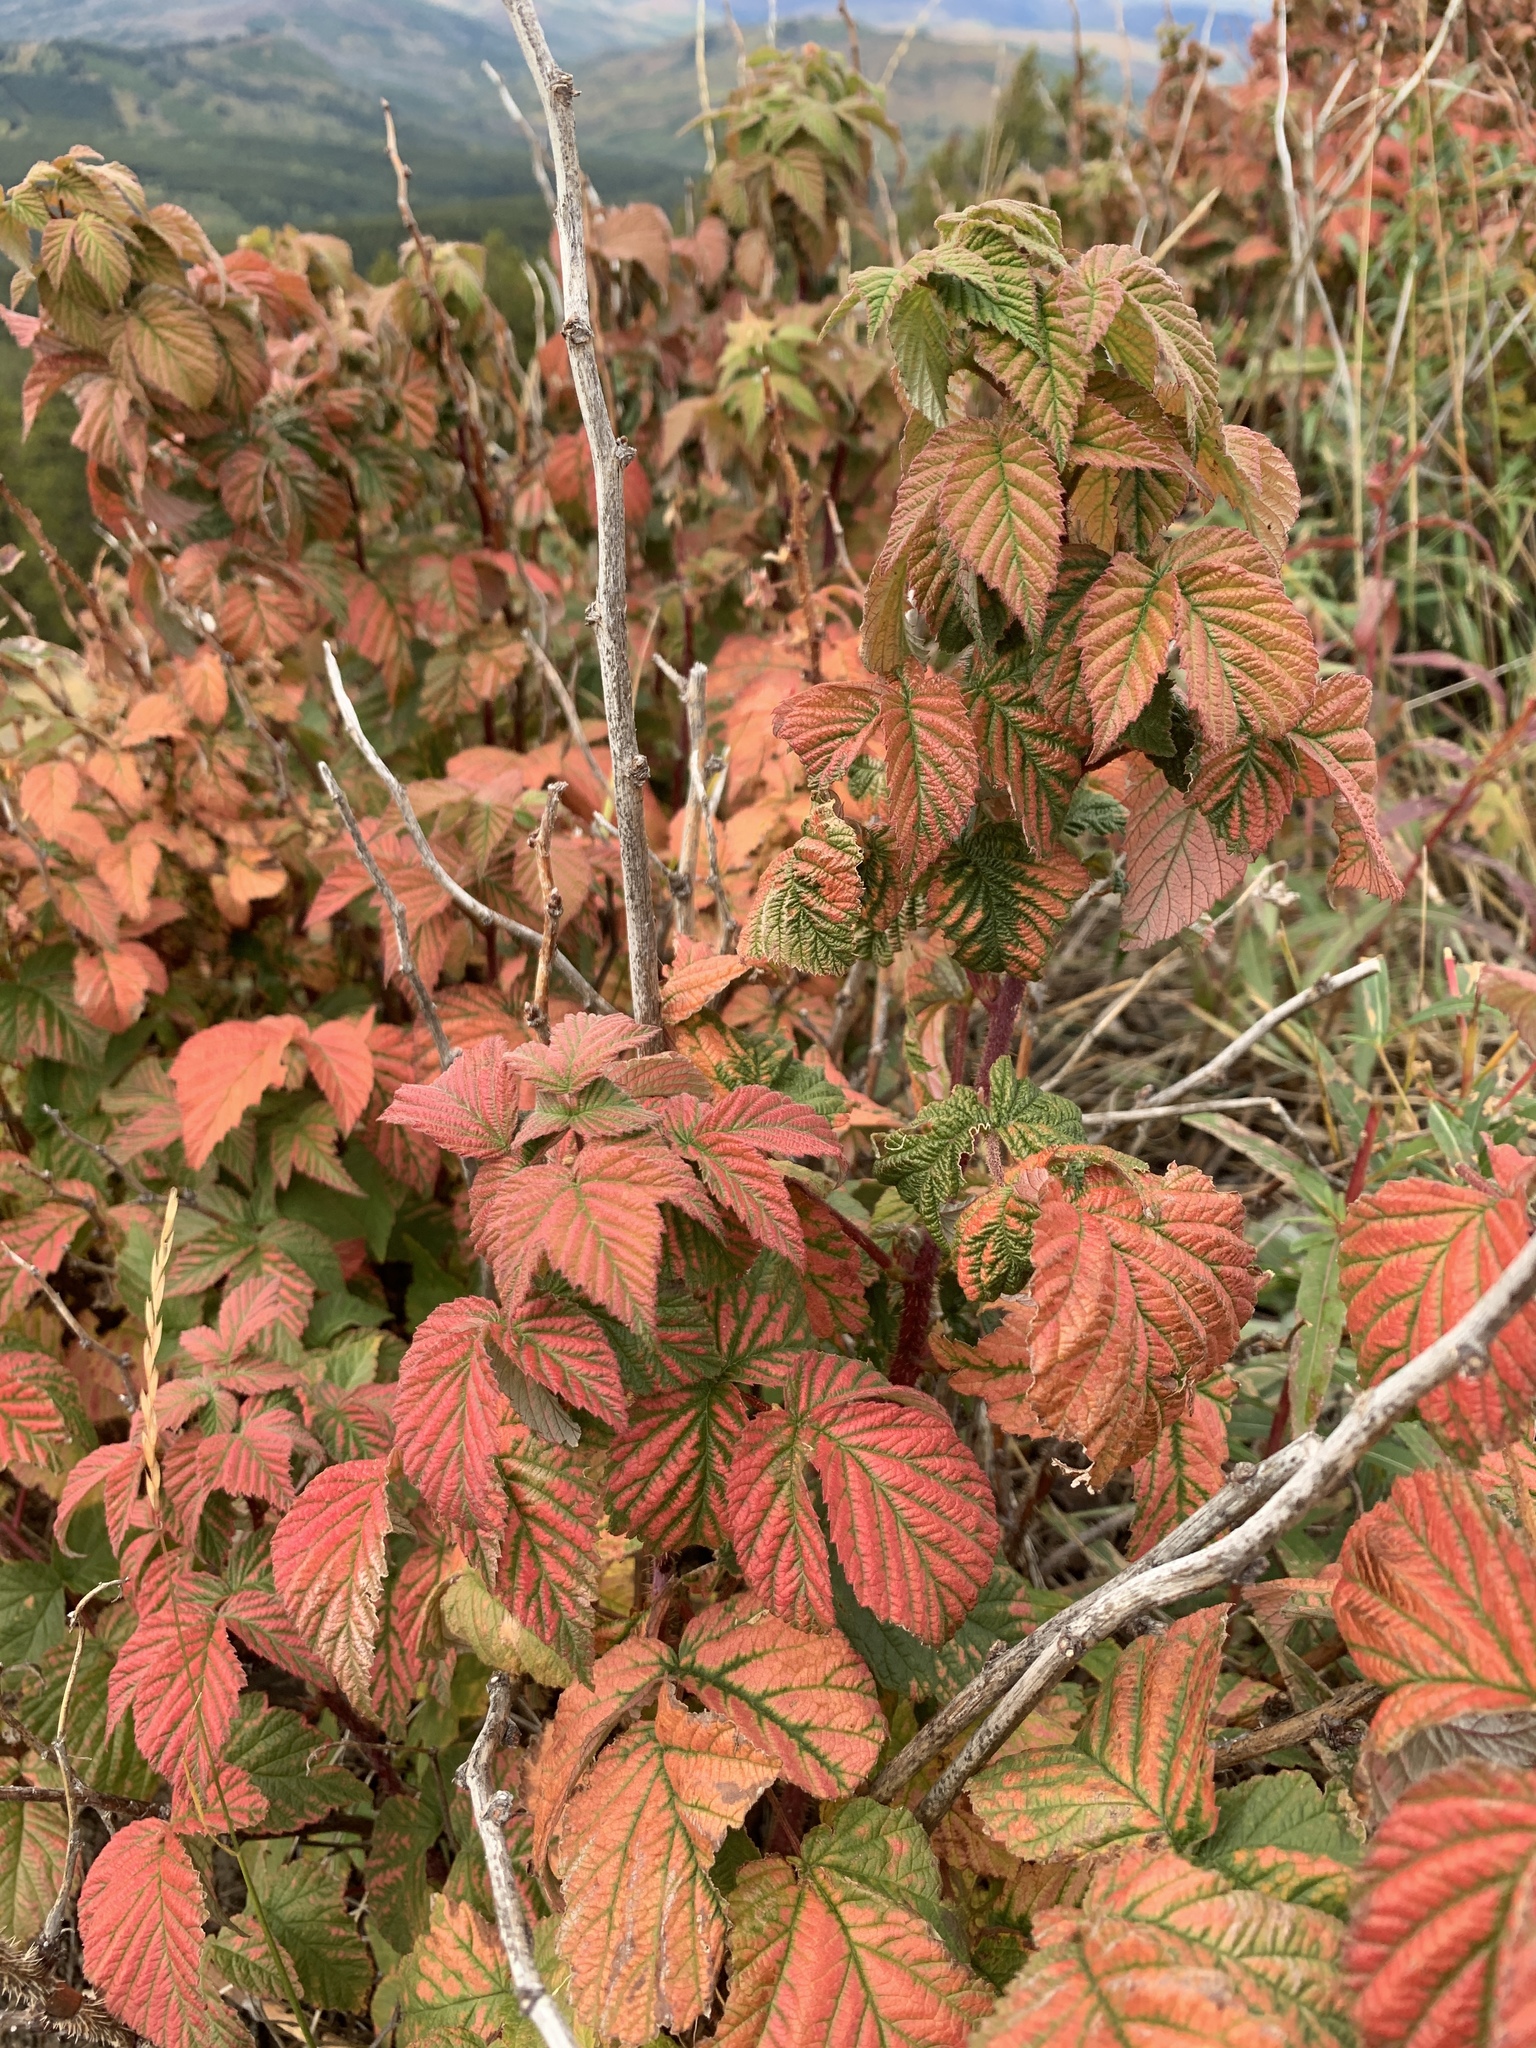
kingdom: Plantae
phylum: Tracheophyta
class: Magnoliopsida
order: Rosales
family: Rosaceae
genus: Rubus
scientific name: Rubus idaeus
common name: Raspberry
